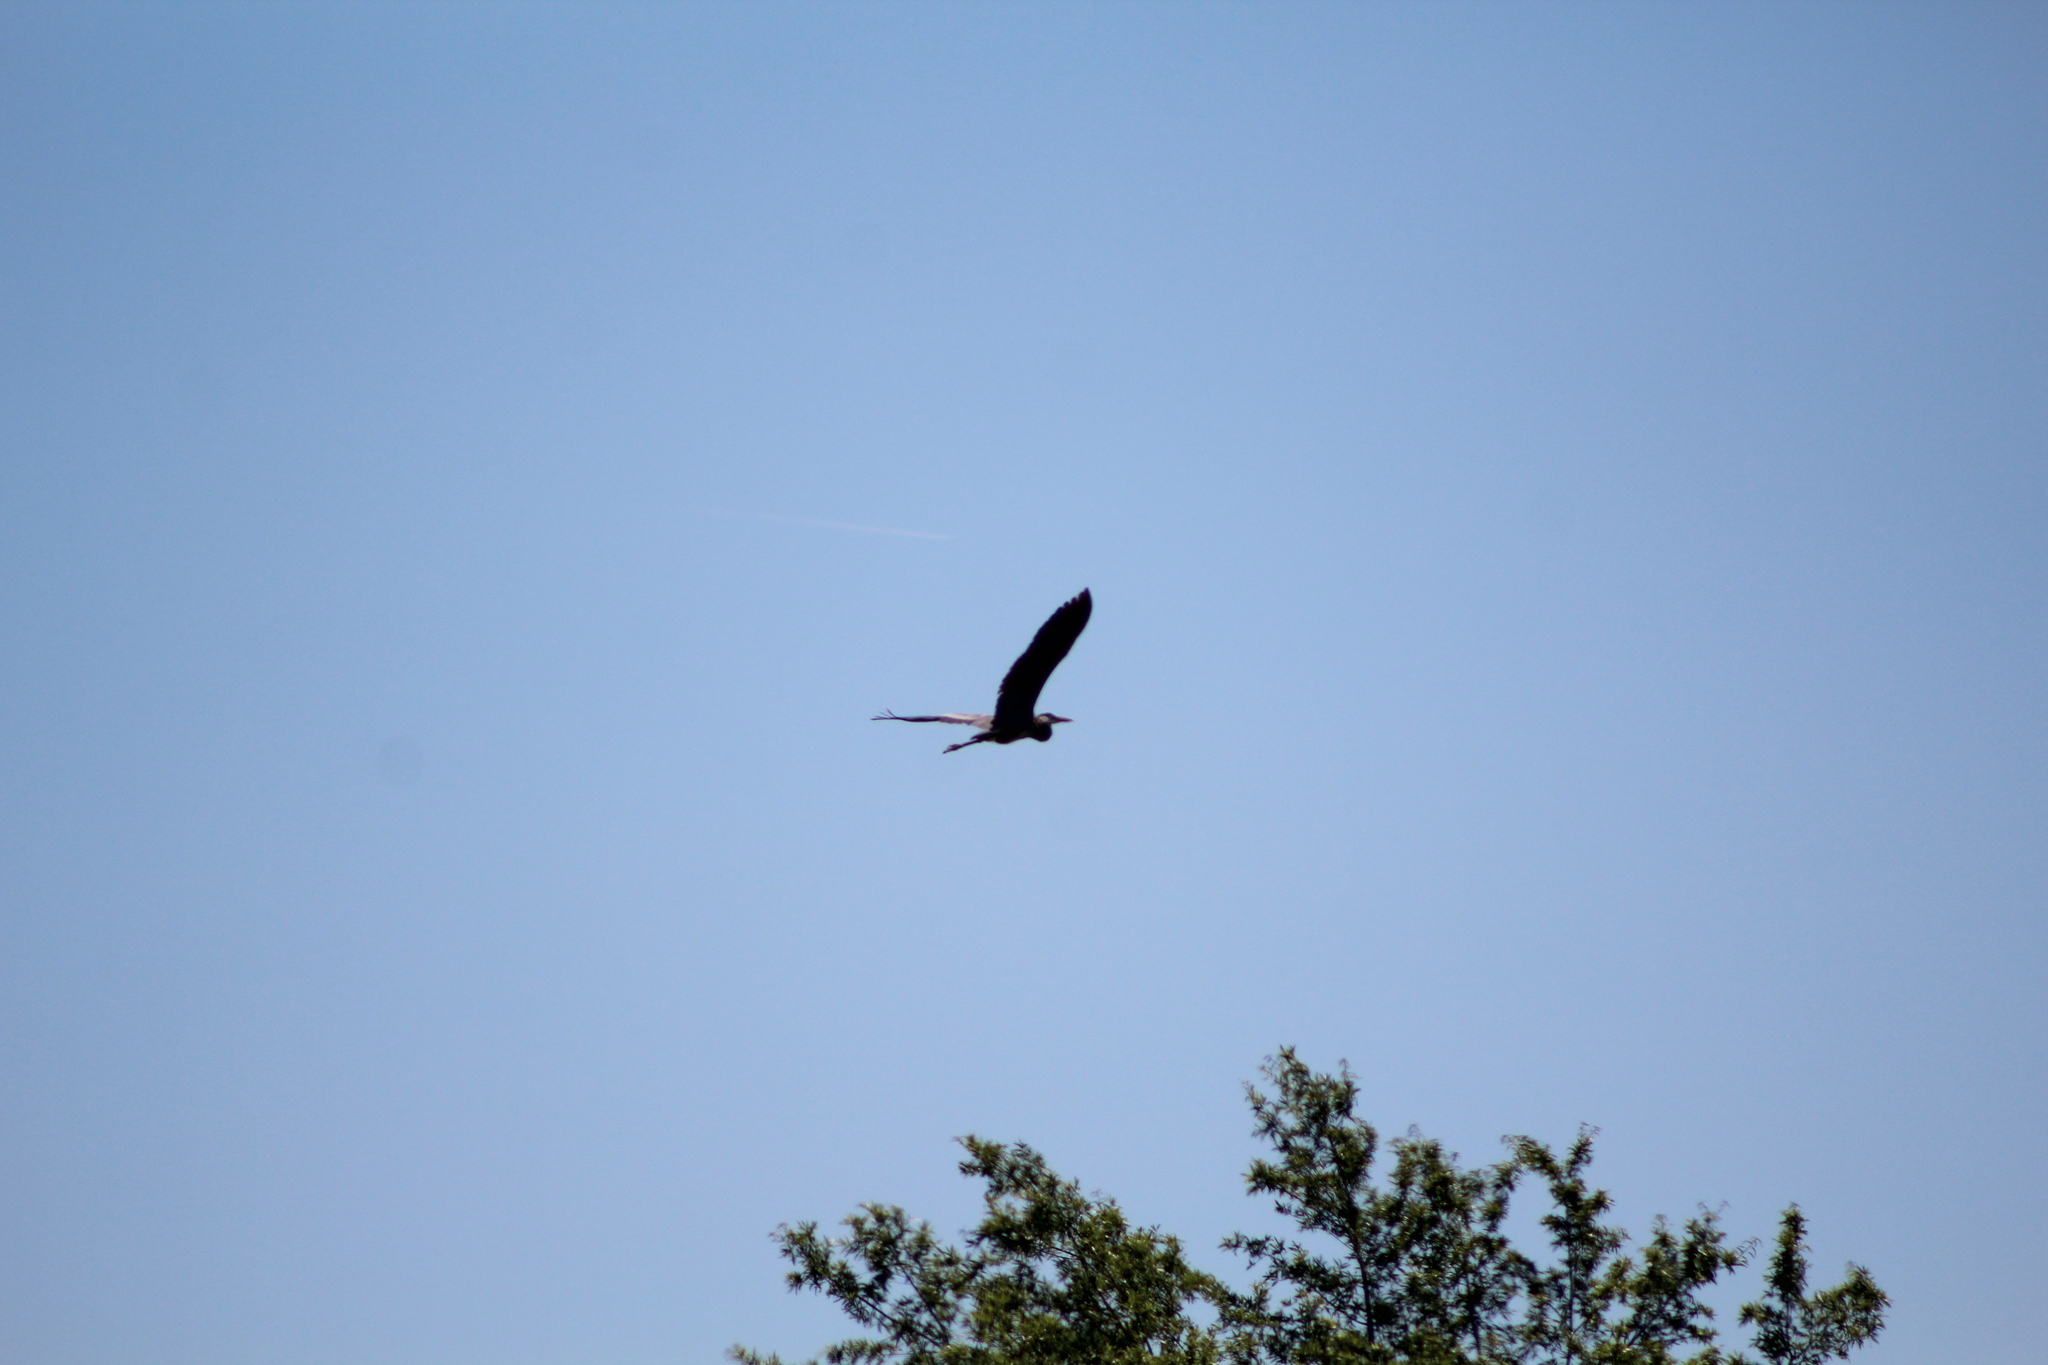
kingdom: Animalia
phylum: Chordata
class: Aves
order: Pelecaniformes
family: Ardeidae
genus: Ardea
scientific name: Ardea herodias
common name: Great blue heron
